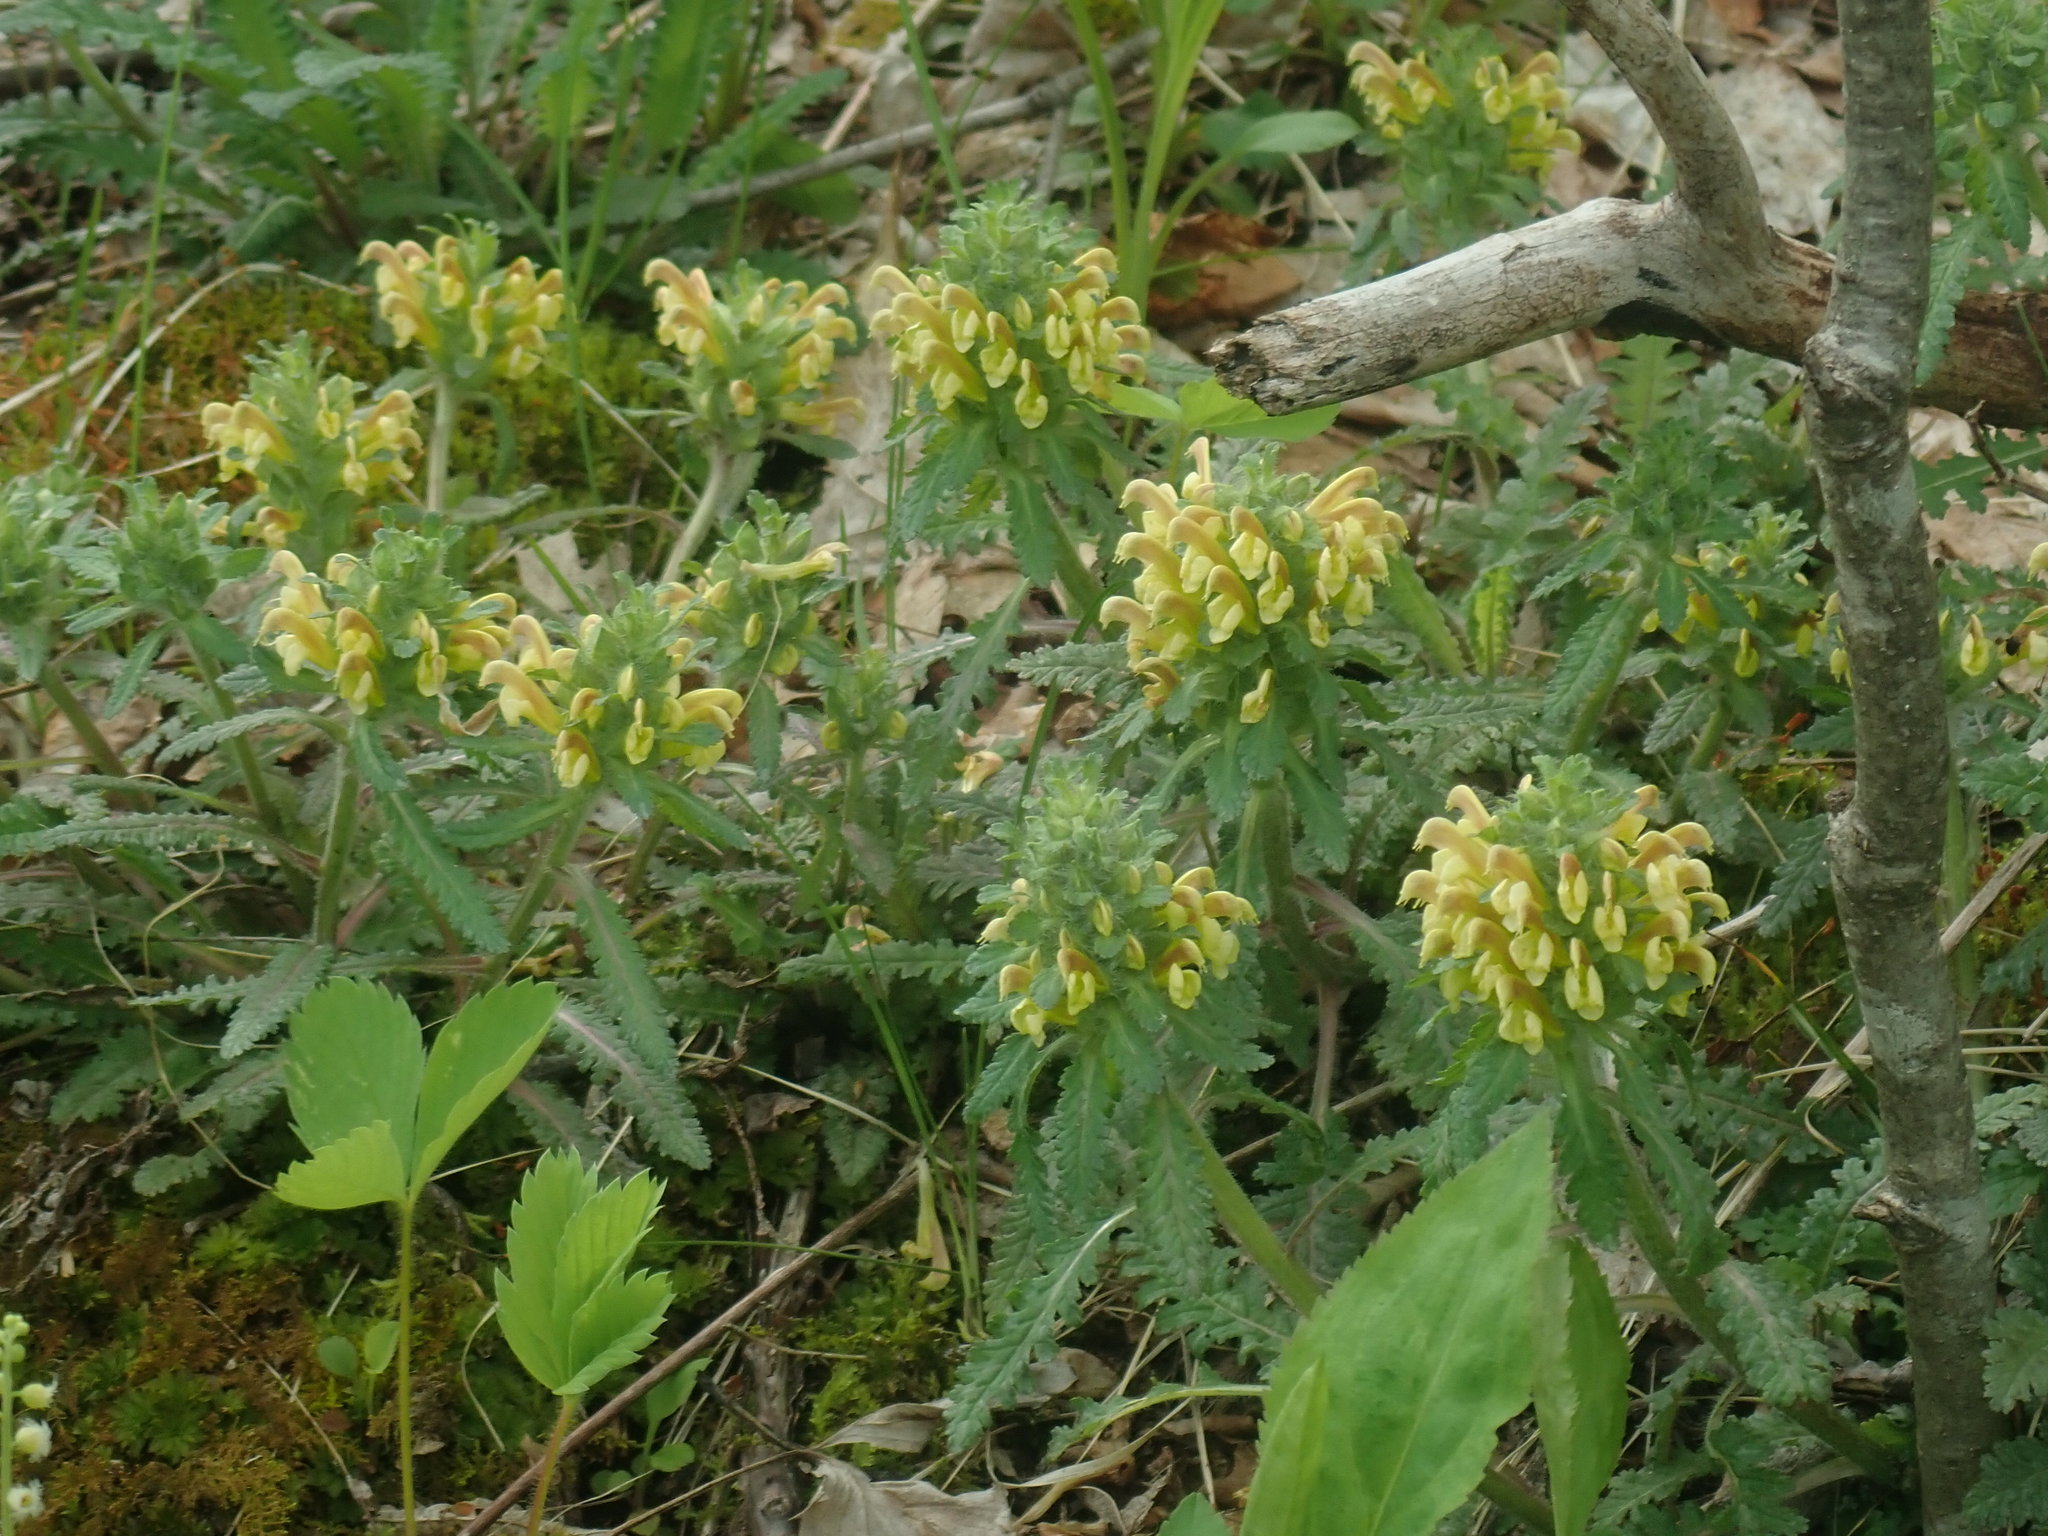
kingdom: Plantae
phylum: Tracheophyta
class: Magnoliopsida
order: Lamiales
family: Orobanchaceae
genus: Pedicularis
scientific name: Pedicularis canadensis
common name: Early lousewort
